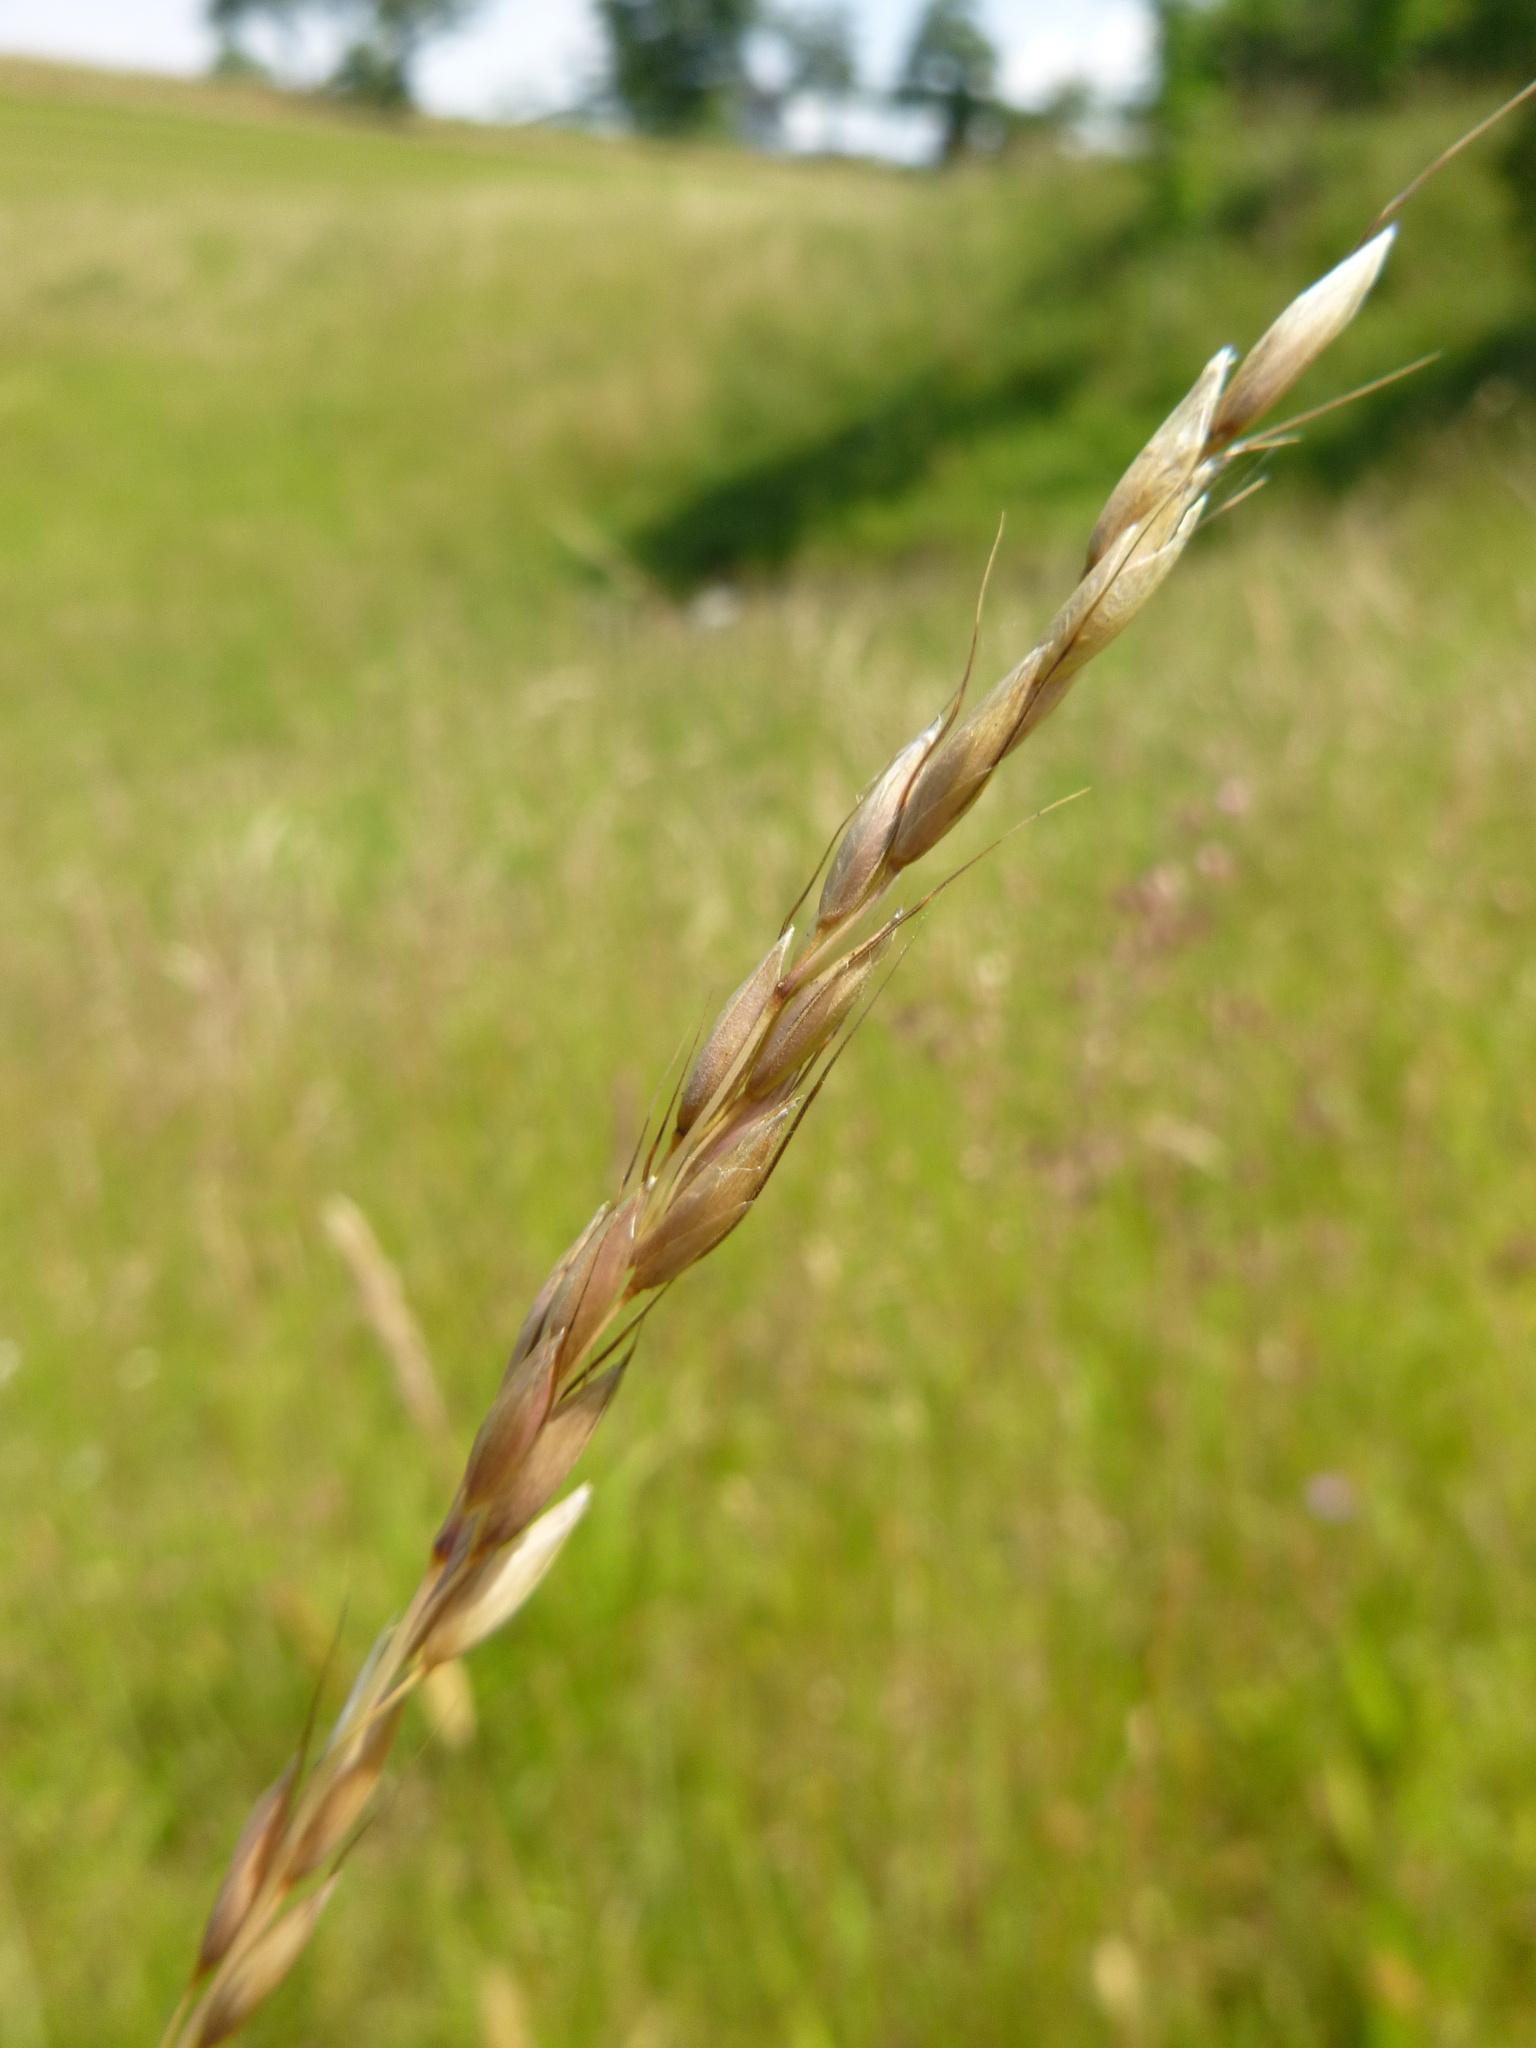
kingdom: Plantae
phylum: Tracheophyta
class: Liliopsida
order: Poales
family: Poaceae
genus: Arrhenatherum
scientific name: Arrhenatherum elatius
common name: Tall oatgrass
